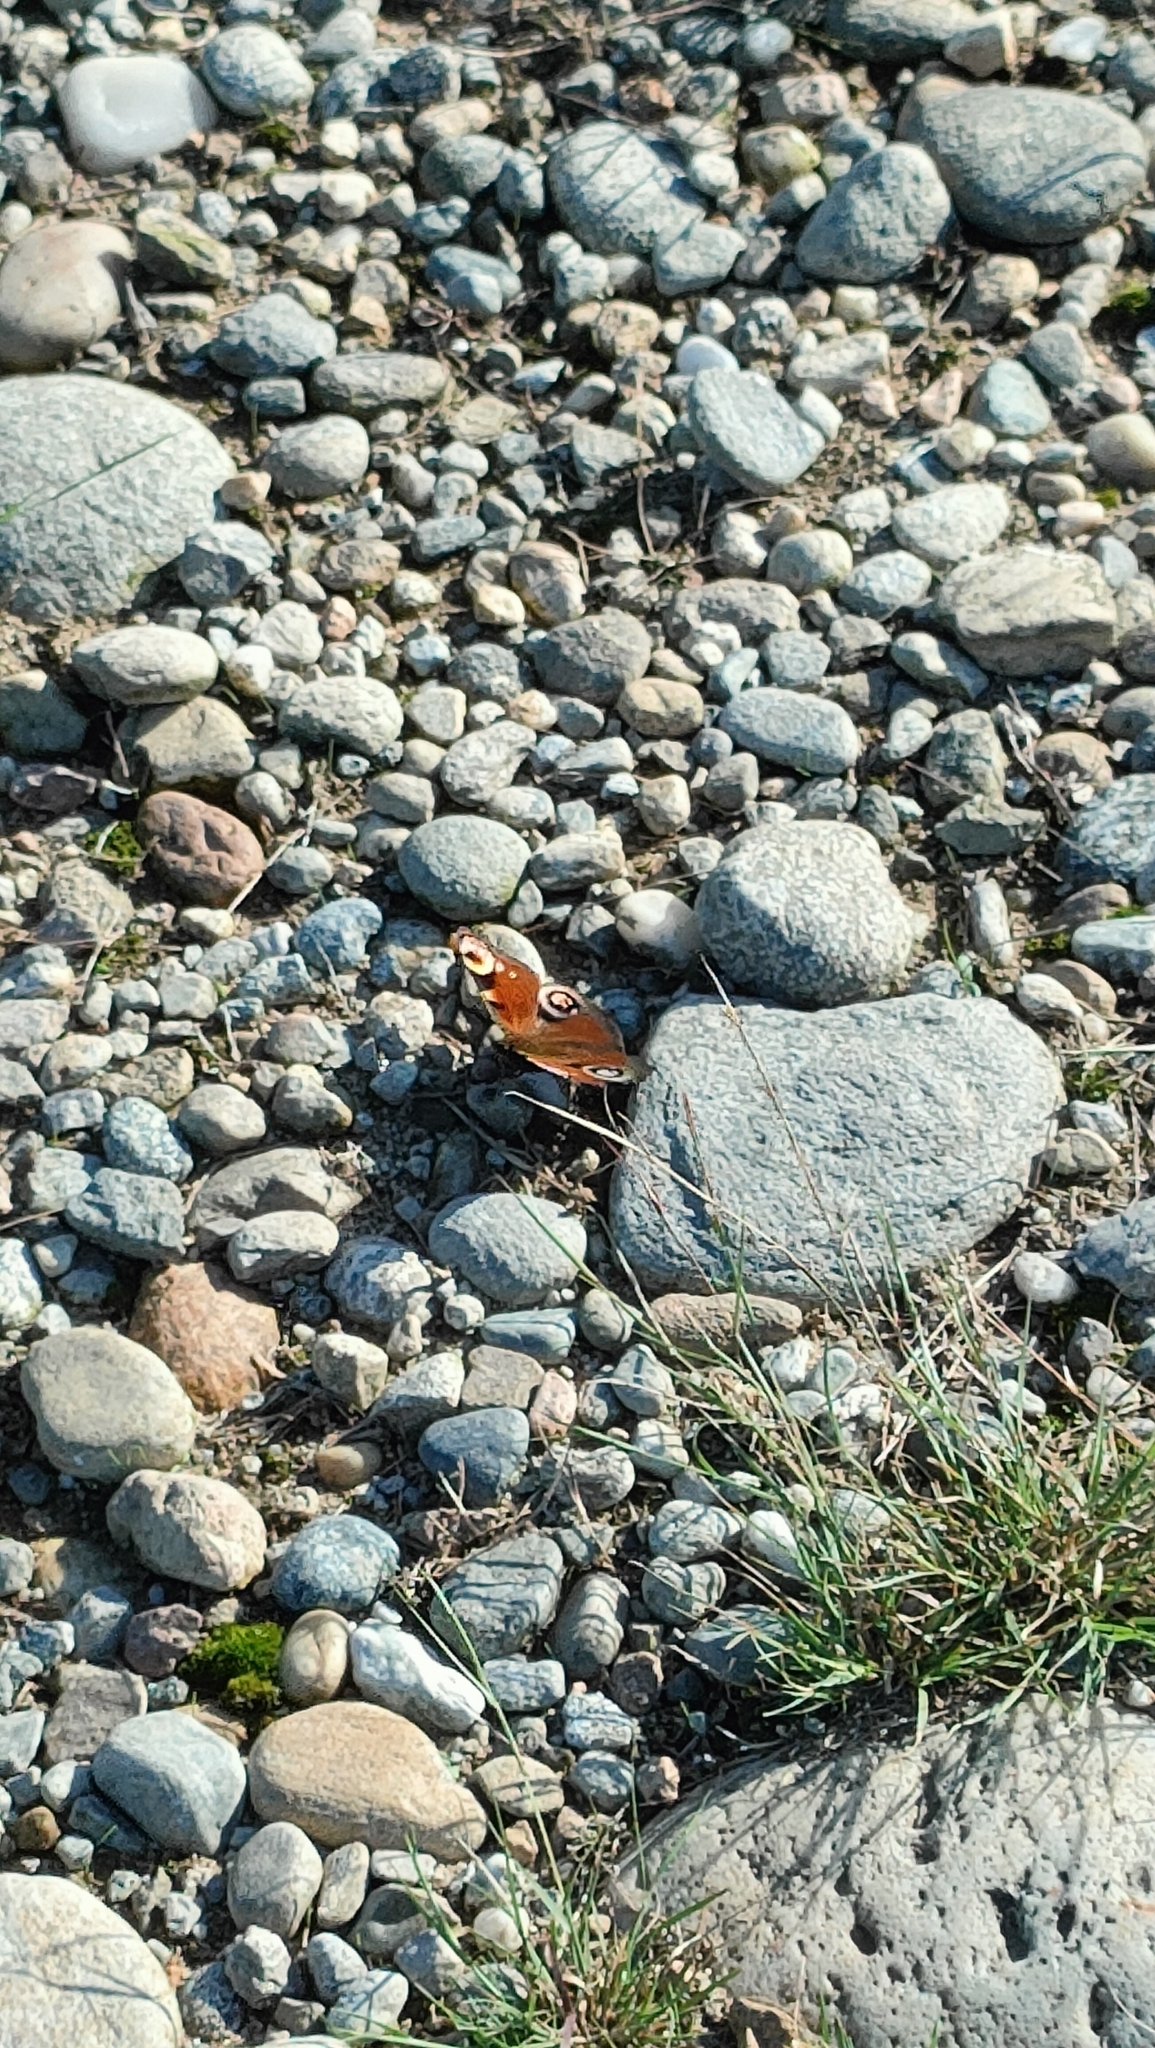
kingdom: Animalia
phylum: Arthropoda
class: Insecta
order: Lepidoptera
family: Nymphalidae
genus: Aglais
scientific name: Aglais io
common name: Peacock
